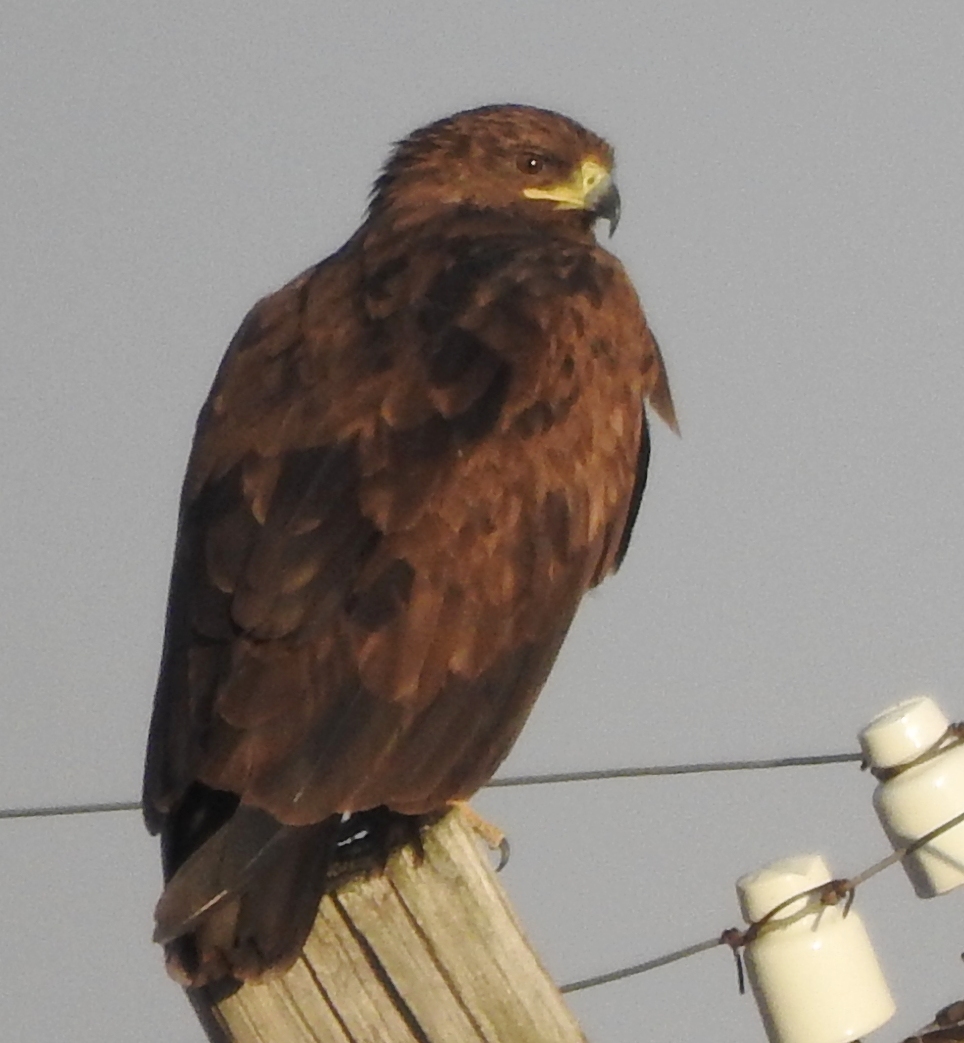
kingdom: Animalia
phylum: Chordata
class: Aves
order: Accipitriformes
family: Accipitridae
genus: Aquila
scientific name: Aquila clanga
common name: Greater spotted eagle
